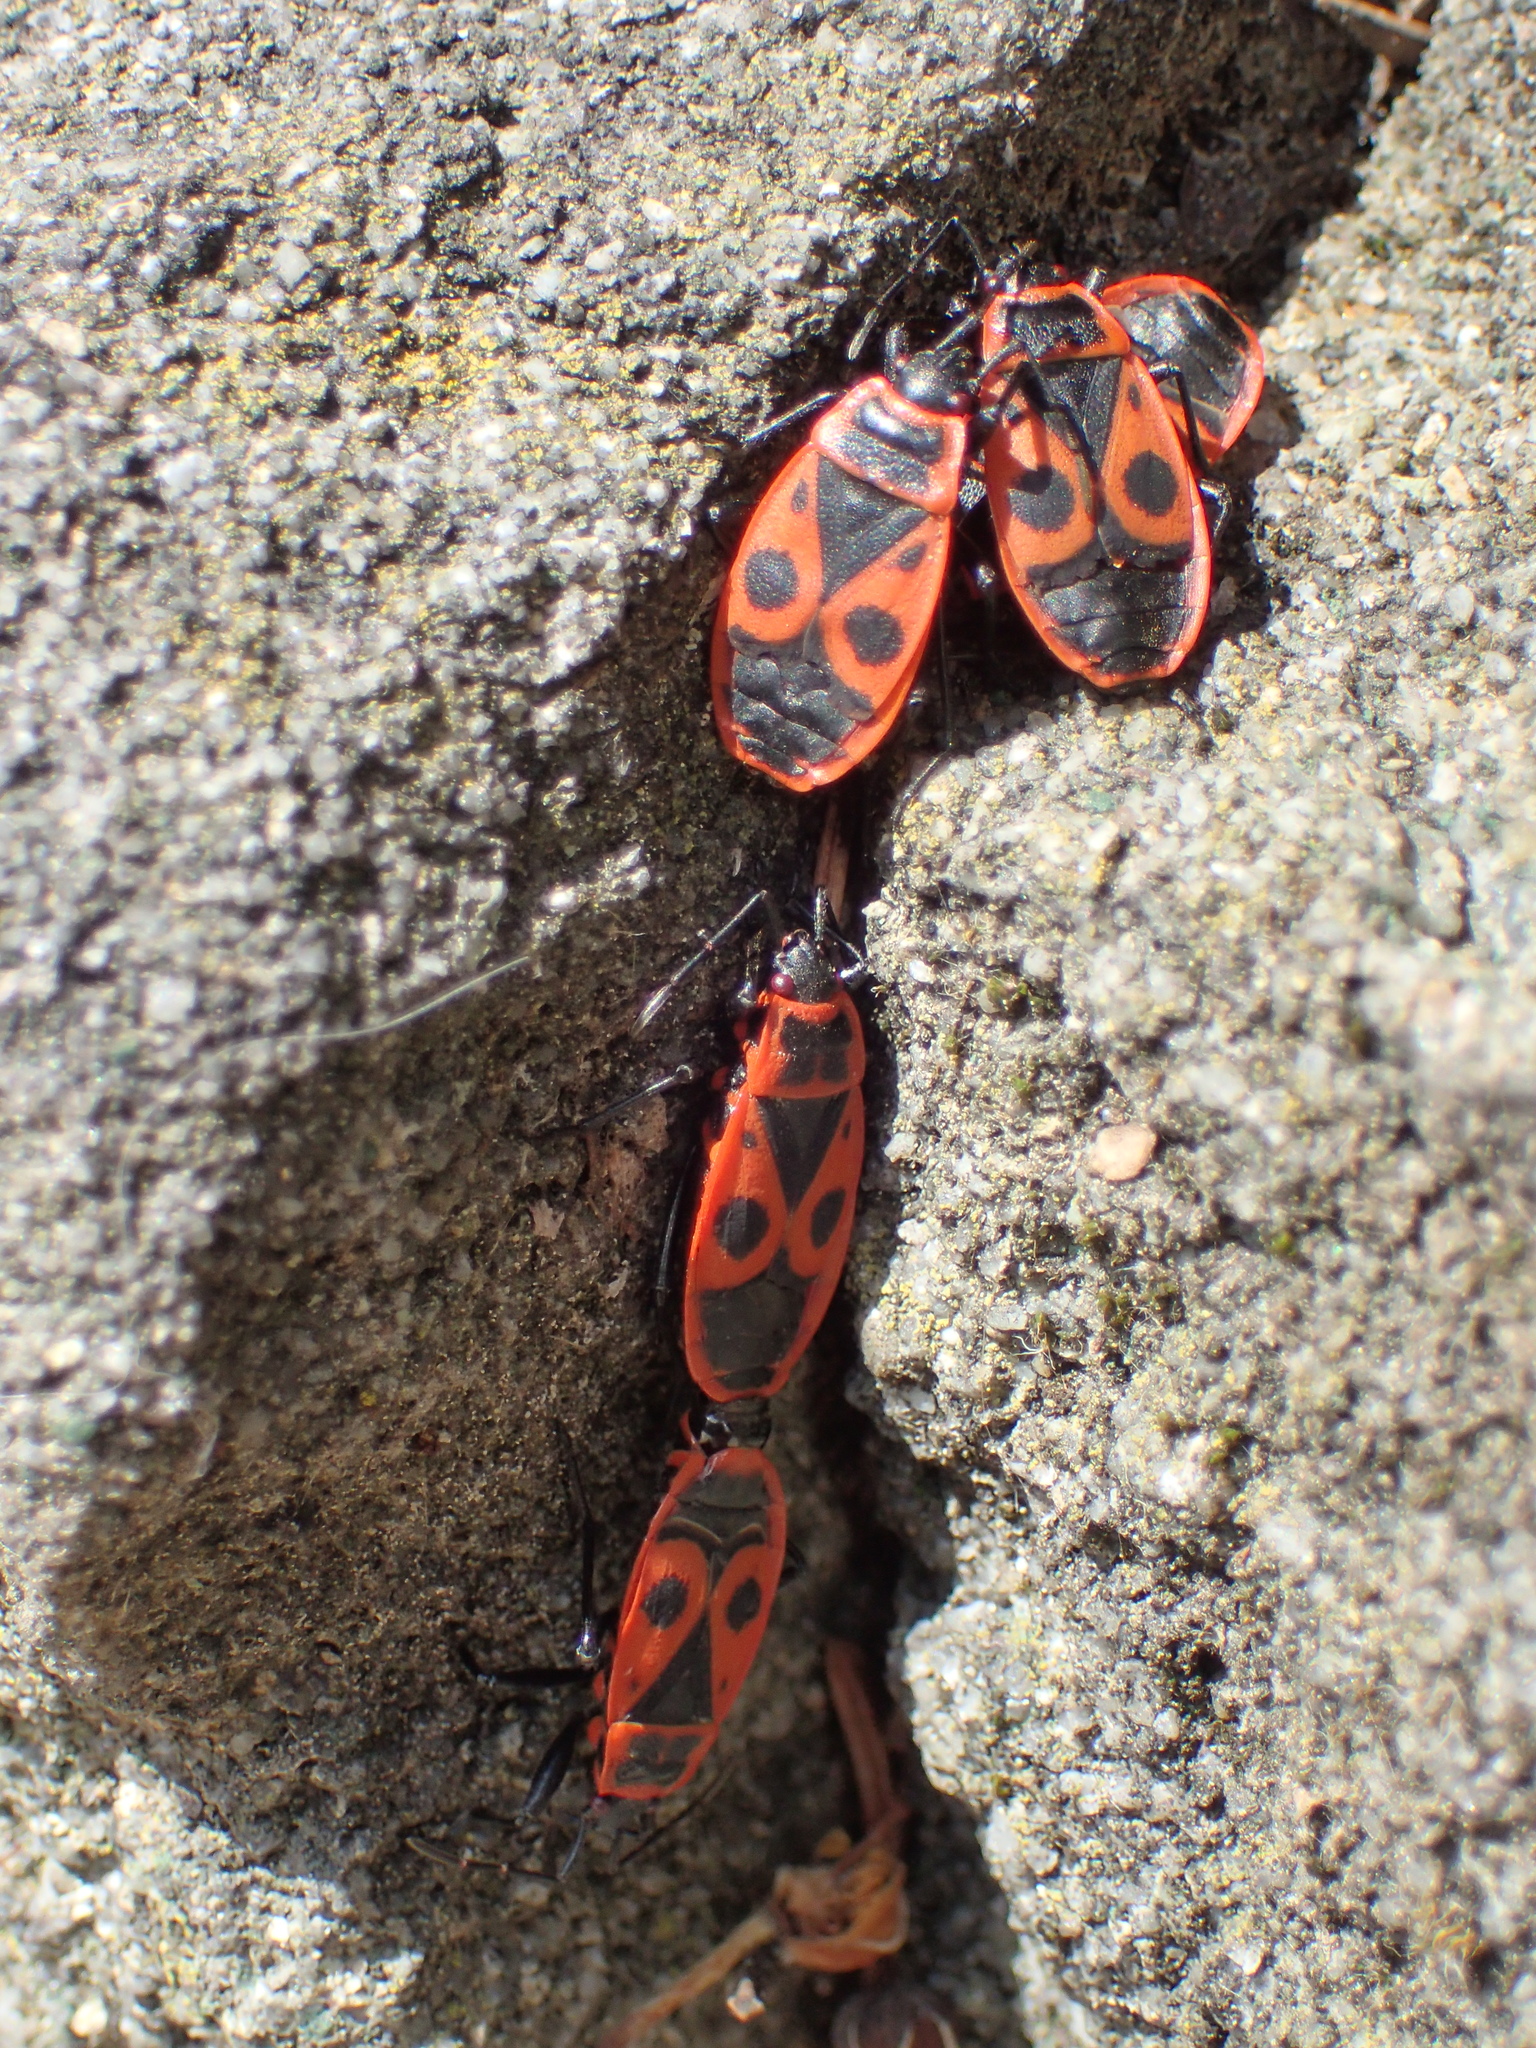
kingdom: Animalia
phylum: Arthropoda
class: Insecta
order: Hemiptera
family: Pyrrhocoridae
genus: Pyrrhocoris
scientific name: Pyrrhocoris apterus
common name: Firebug
